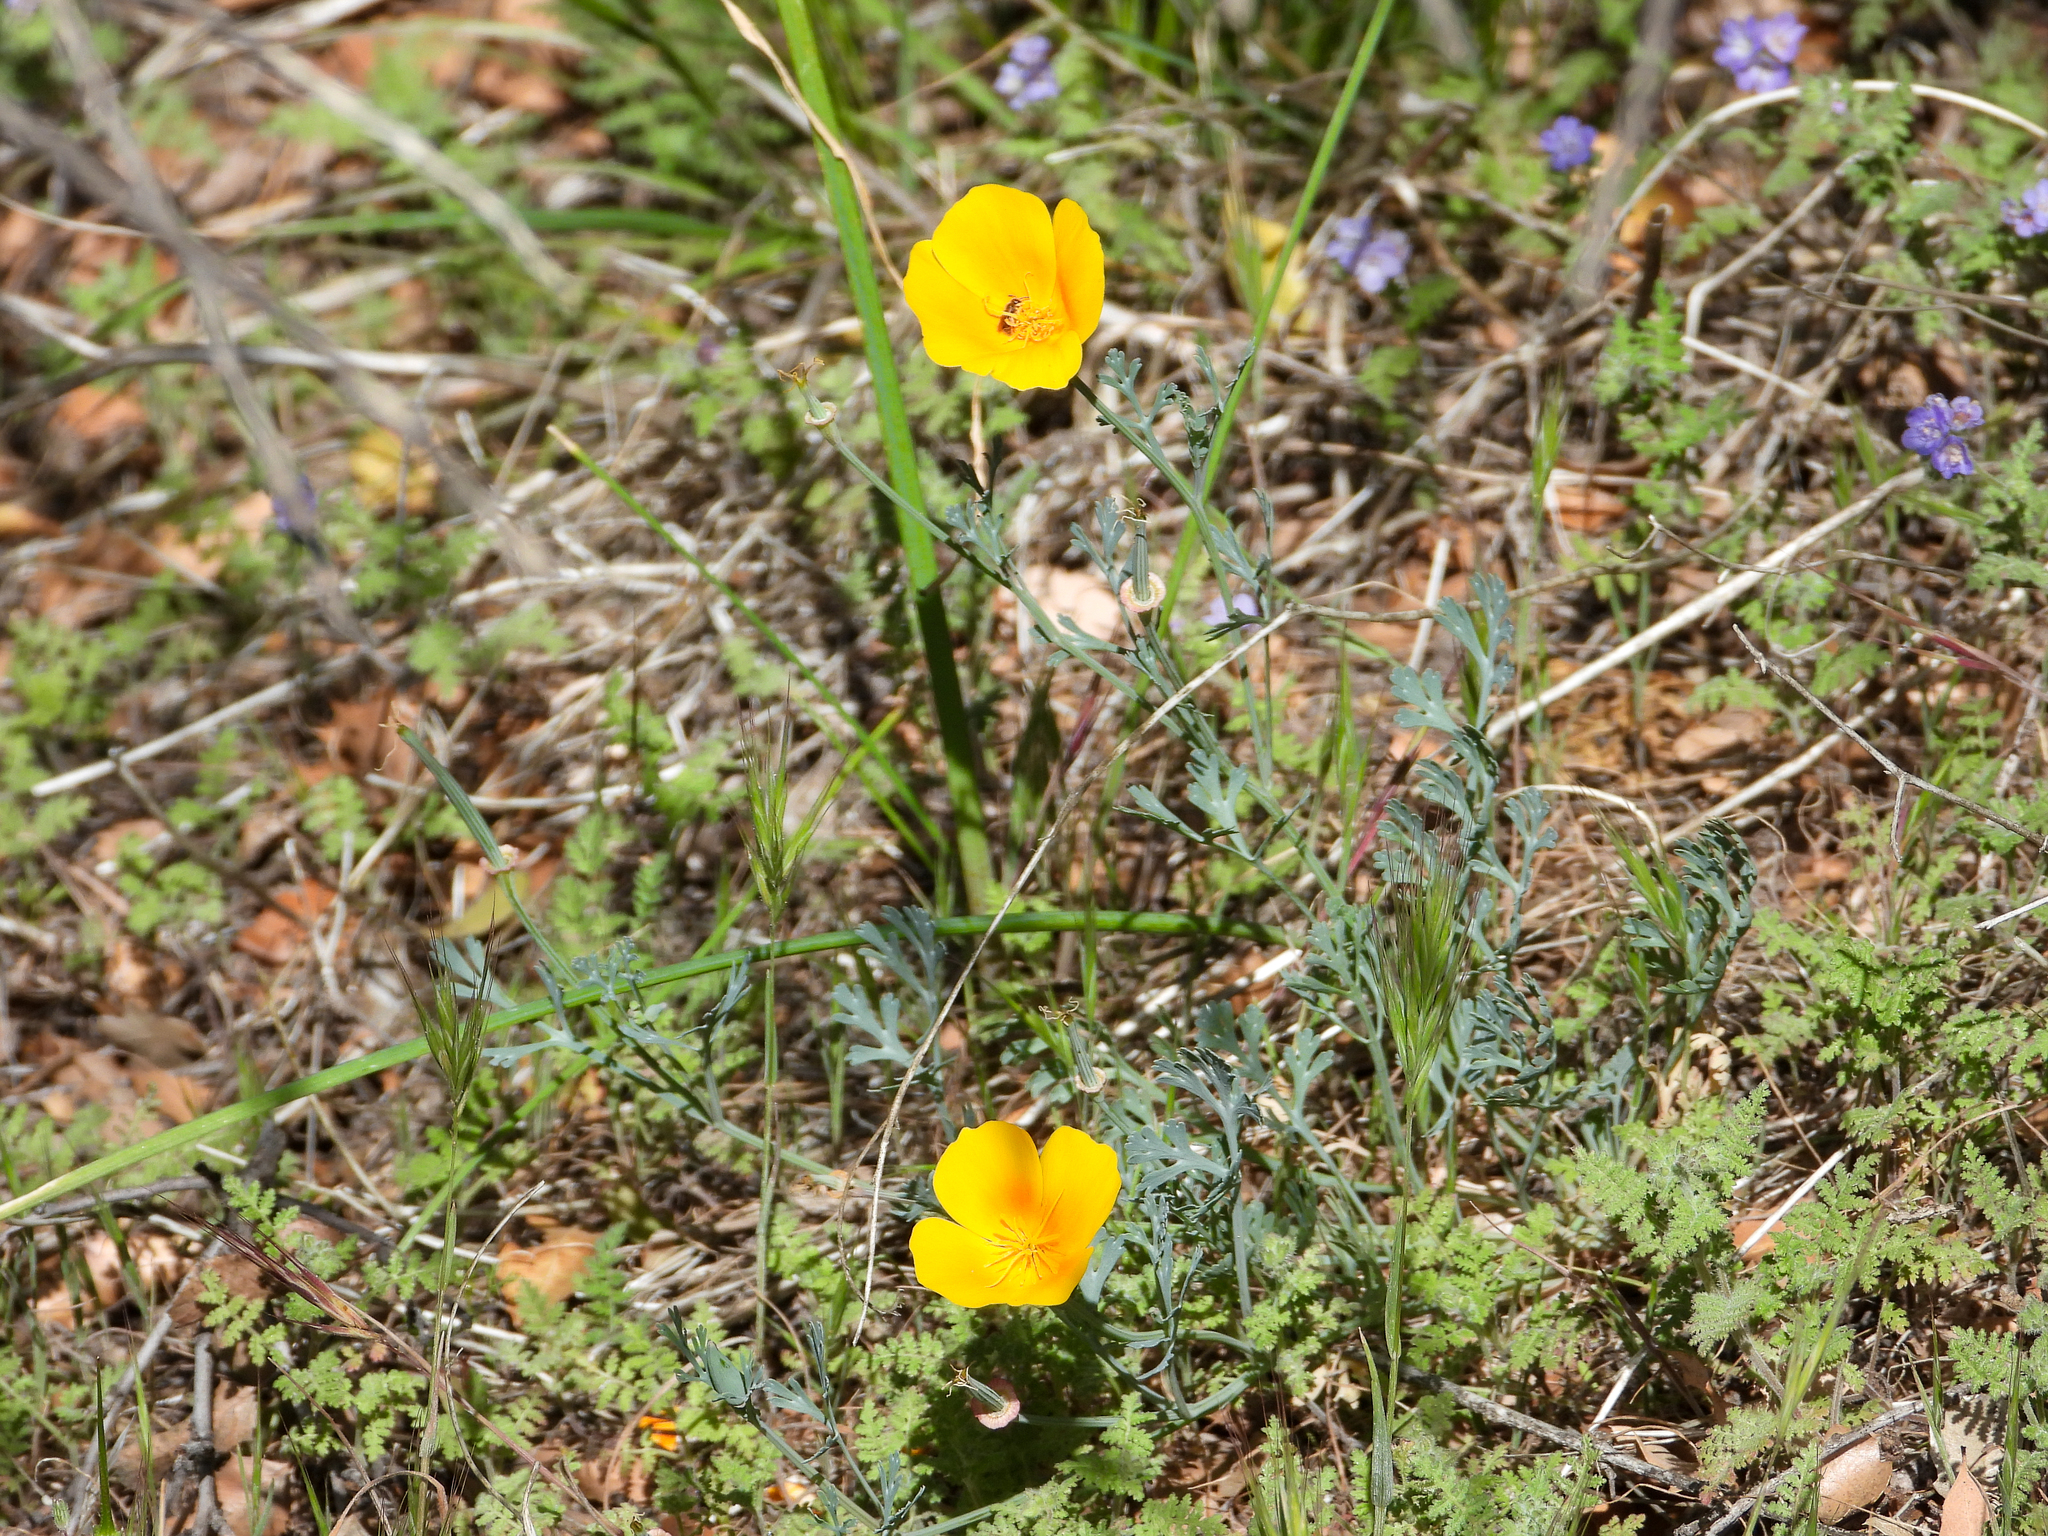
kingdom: Plantae
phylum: Tracheophyta
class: Magnoliopsida
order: Ranunculales
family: Papaveraceae
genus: Eschscholzia
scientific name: Eschscholzia californica
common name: California poppy
